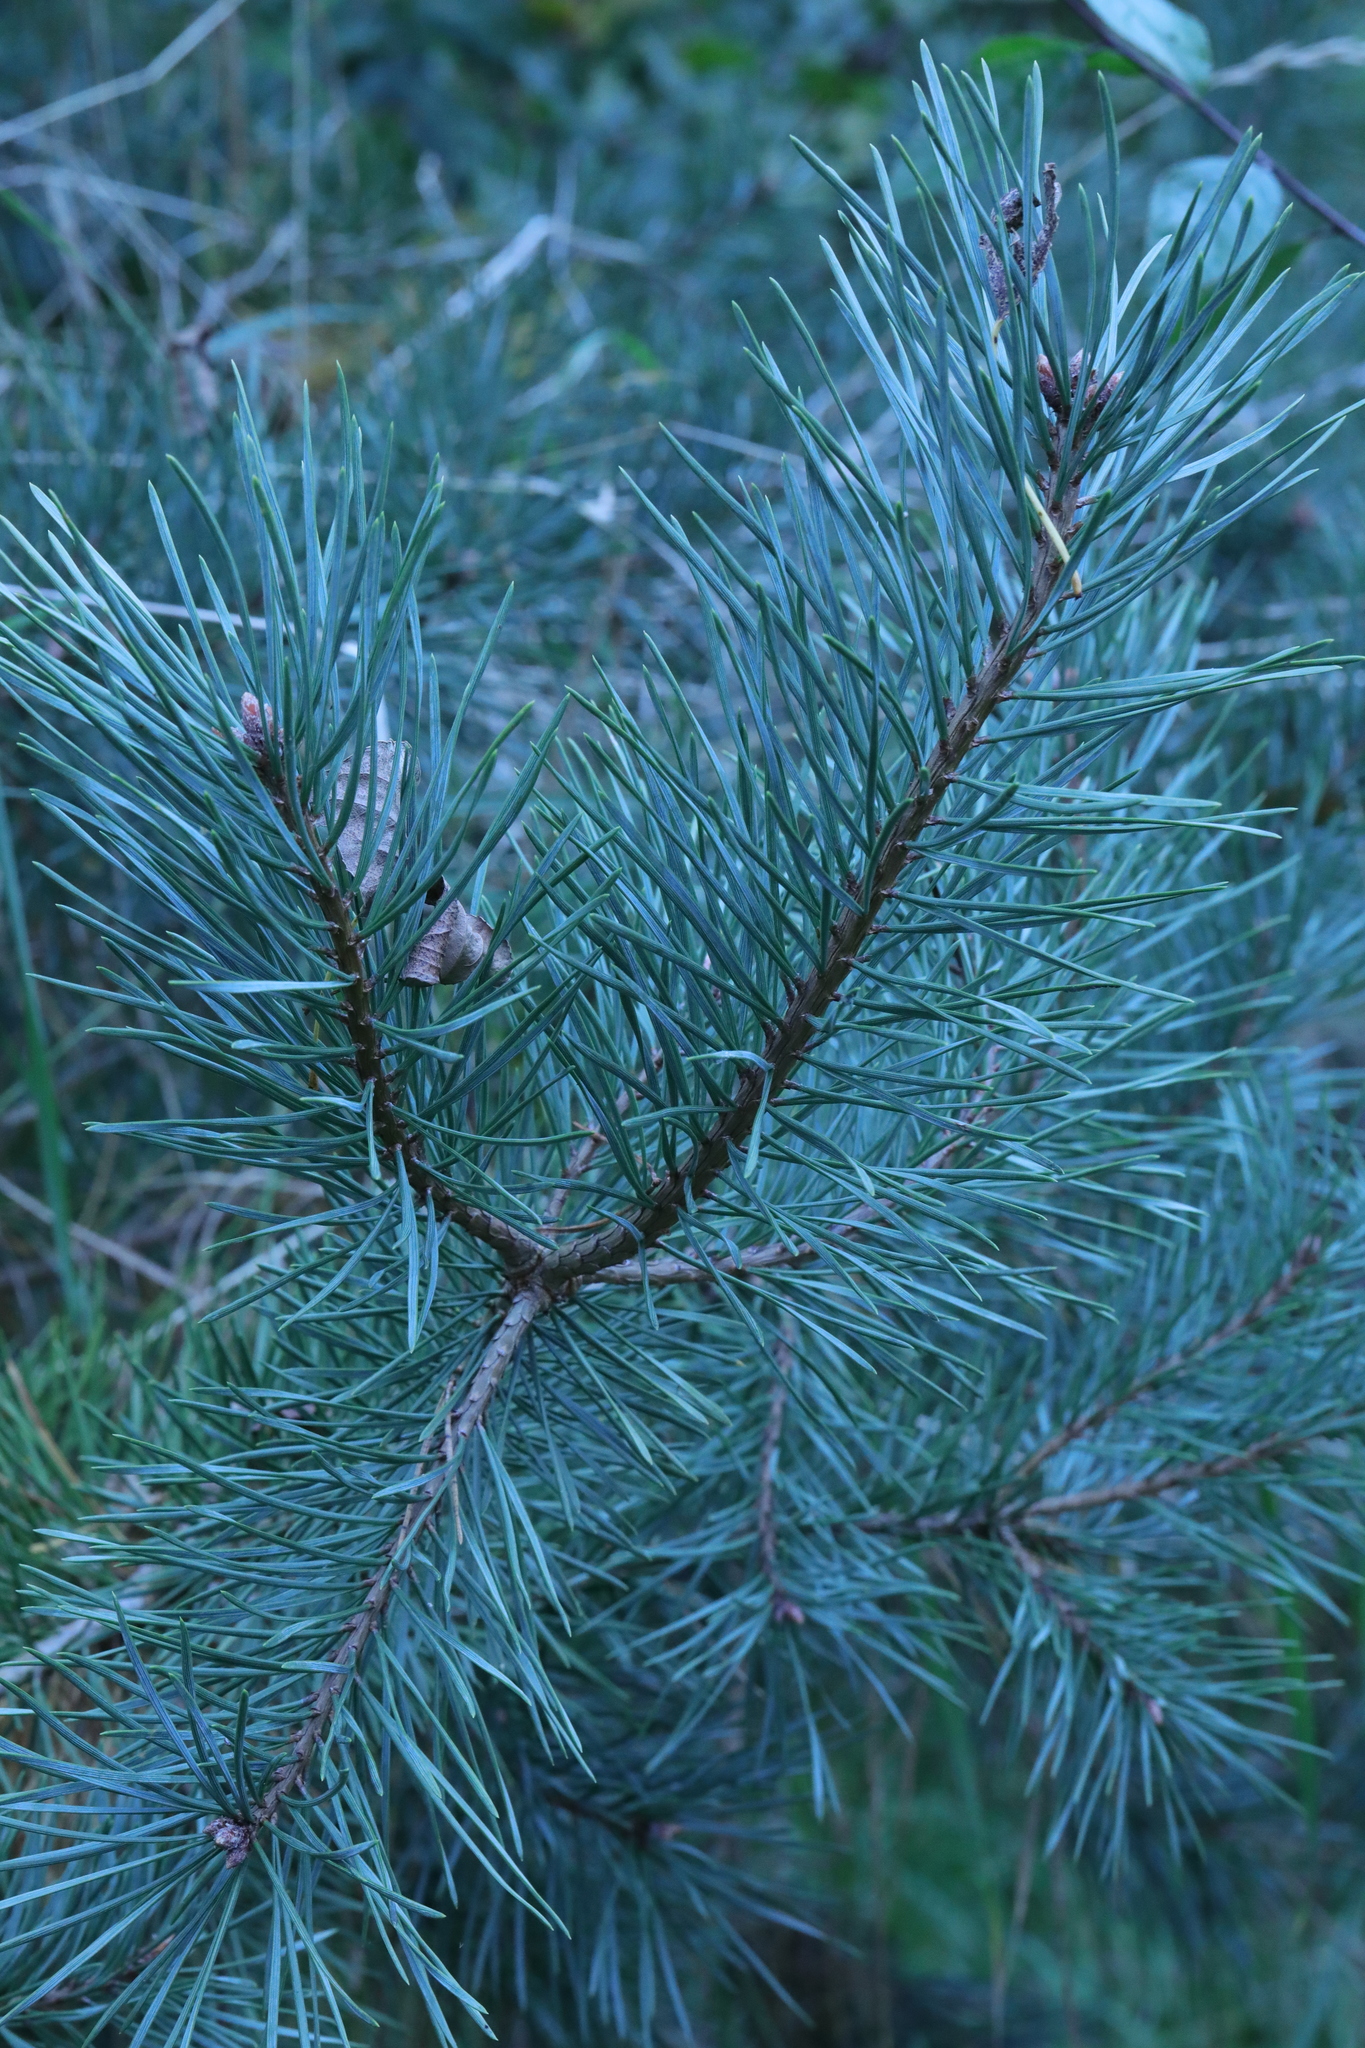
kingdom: Plantae
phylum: Tracheophyta
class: Pinopsida
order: Pinales
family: Pinaceae
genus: Pinus
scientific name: Pinus sylvestris
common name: Scots pine
